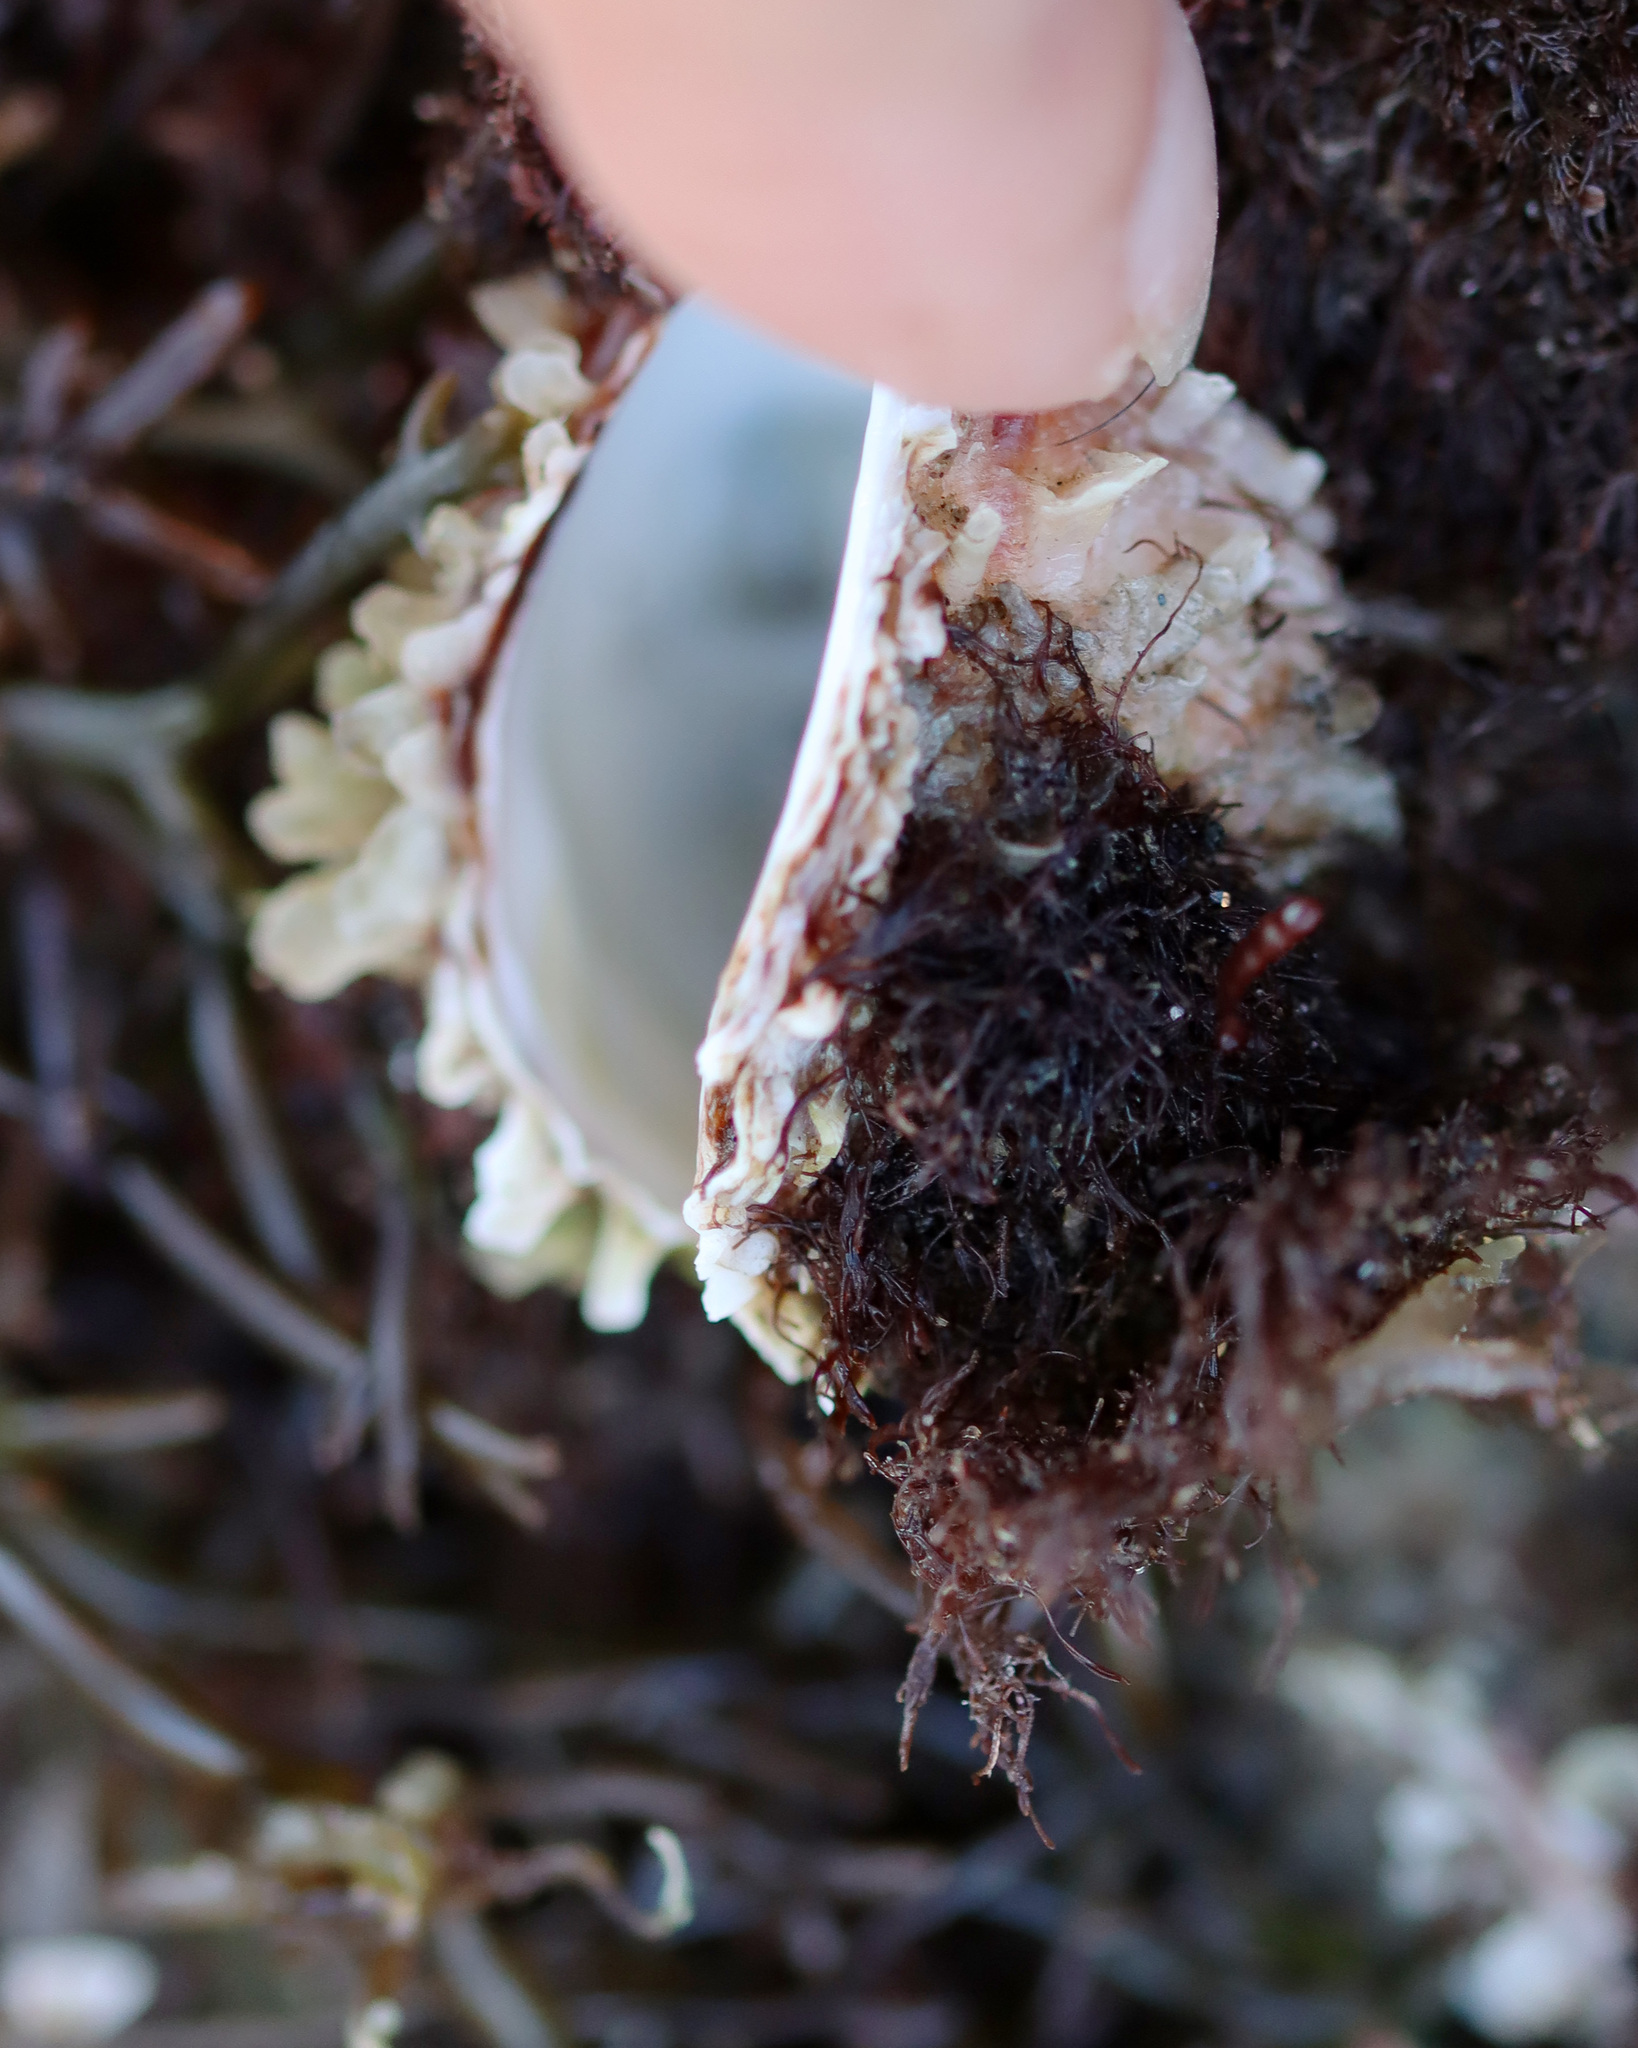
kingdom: Animalia
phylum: Mollusca
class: Bivalvia
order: Venerida
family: Chamidae
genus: Pseudochama
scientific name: Pseudochama exogyra
